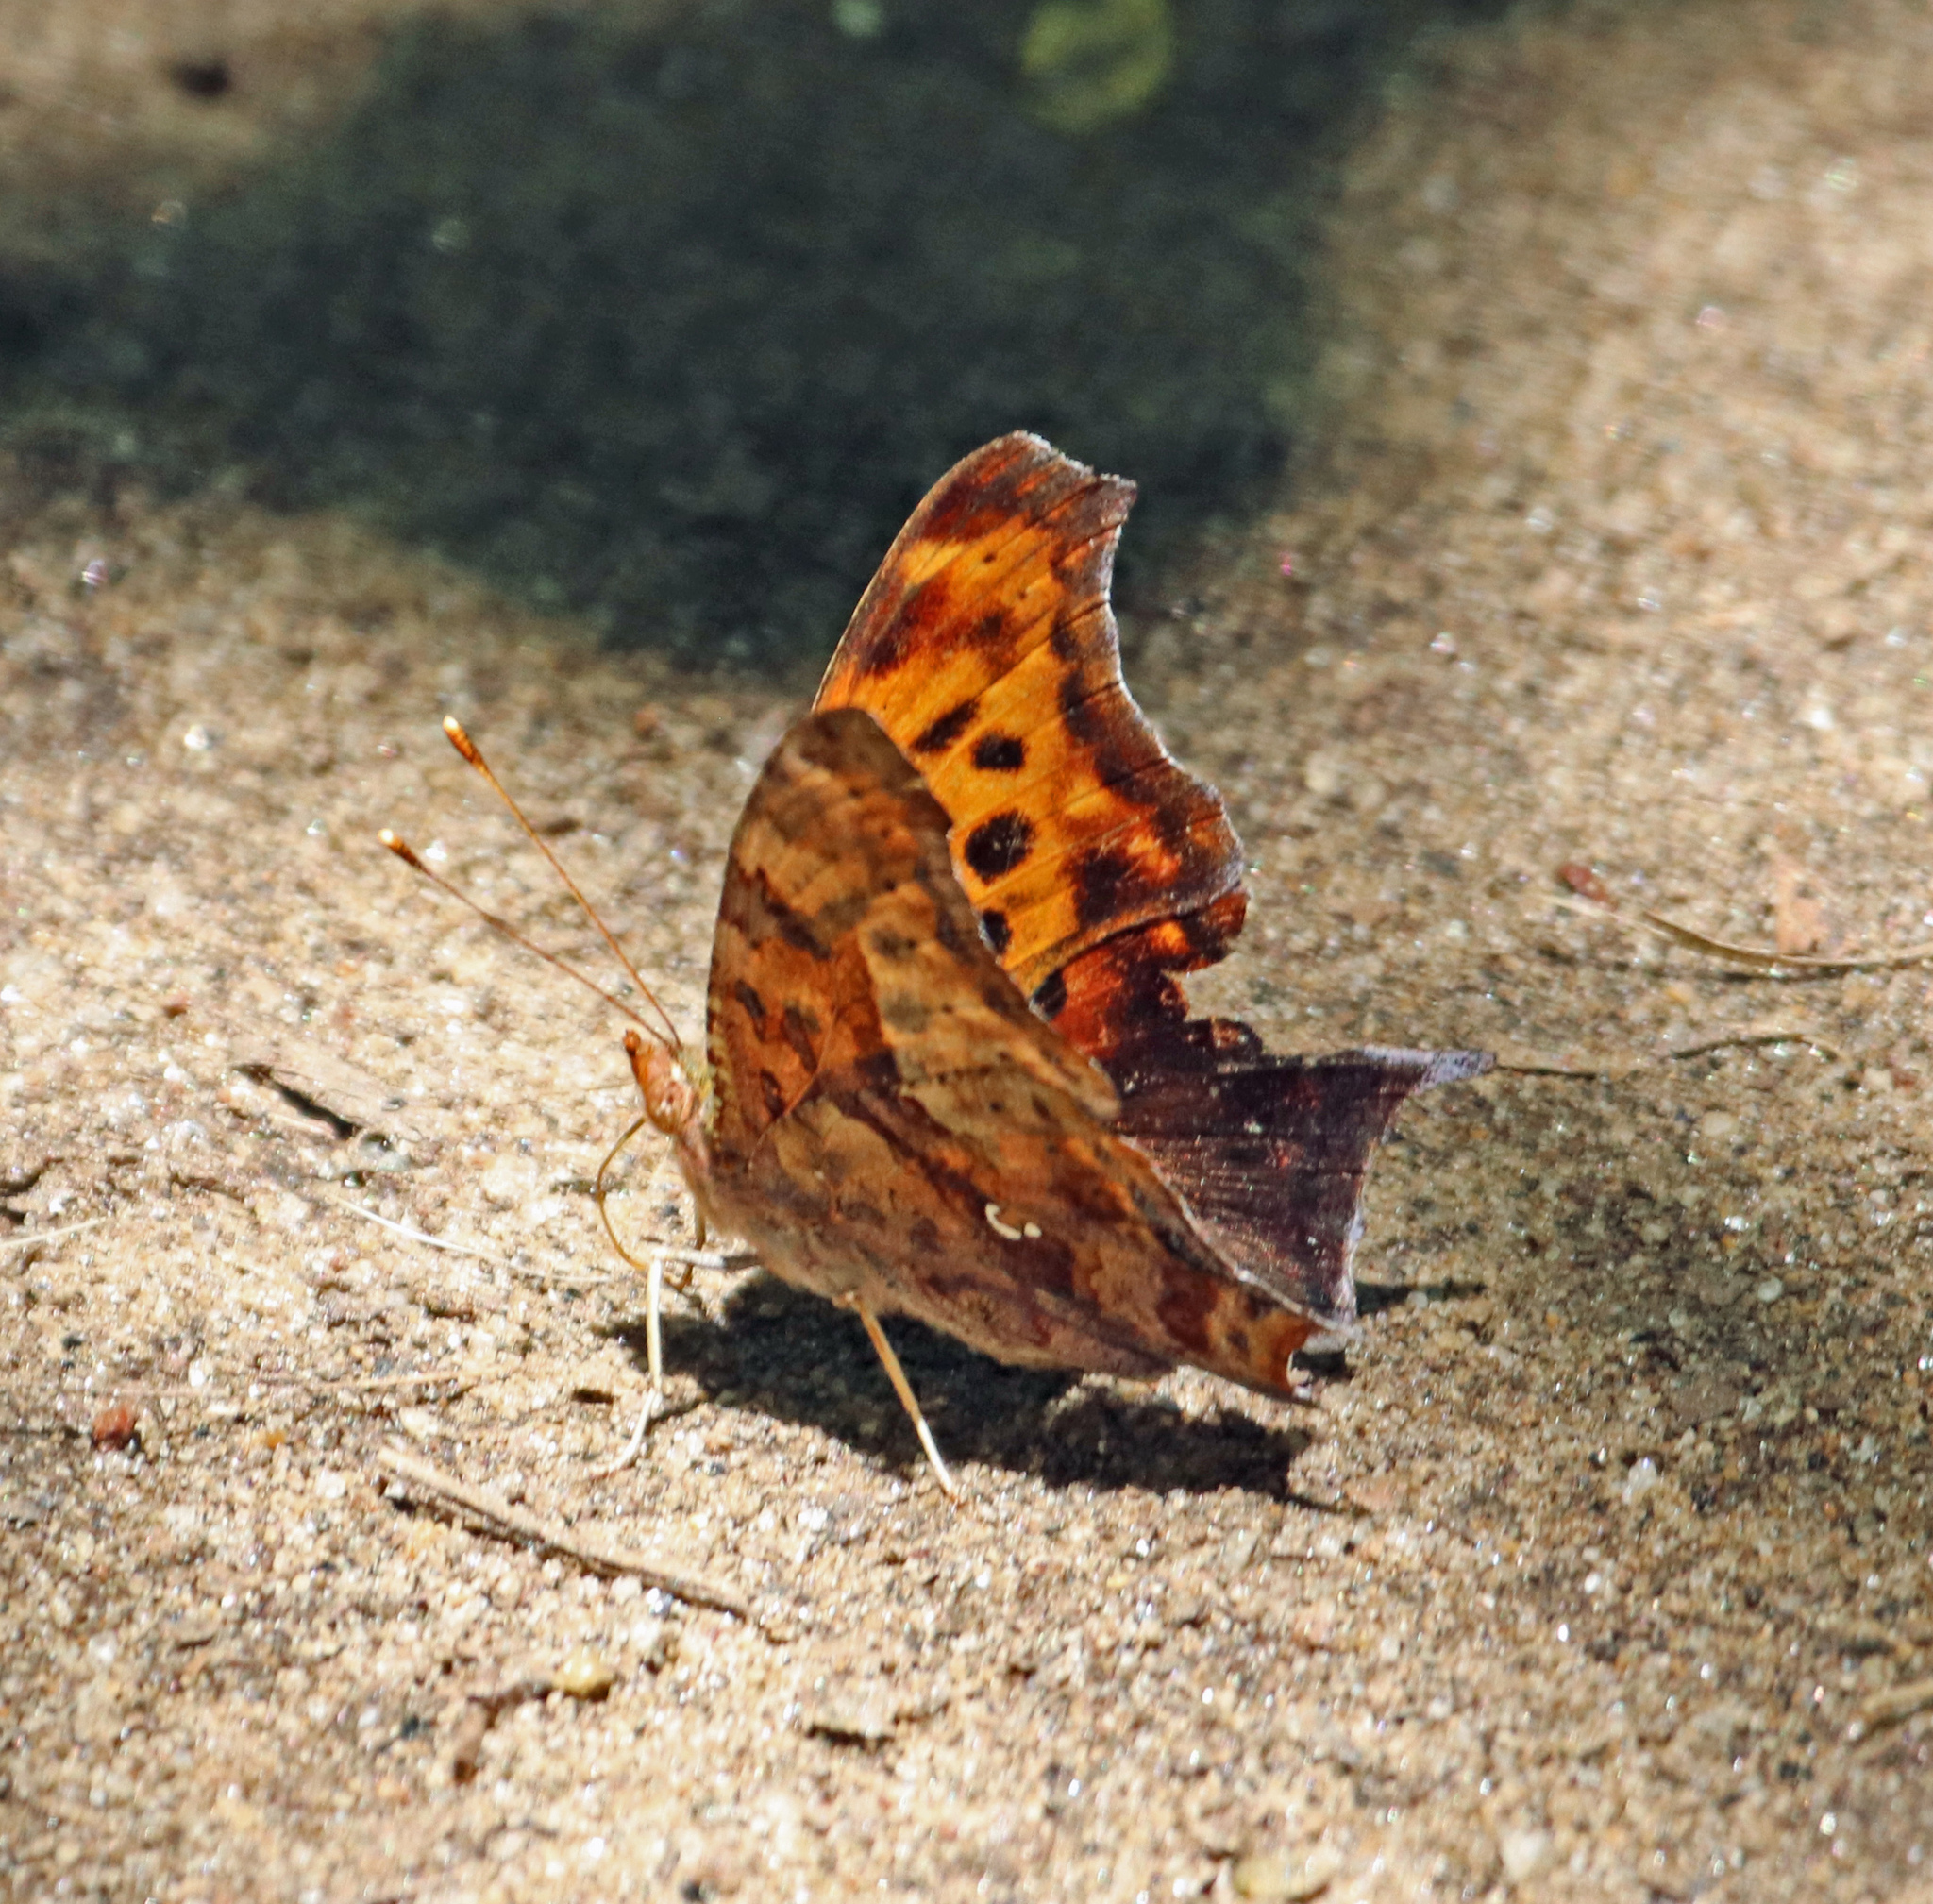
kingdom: Animalia
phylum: Arthropoda
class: Insecta
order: Lepidoptera
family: Nymphalidae
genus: Polygonia
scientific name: Polygonia interrogationis
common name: Question mark
